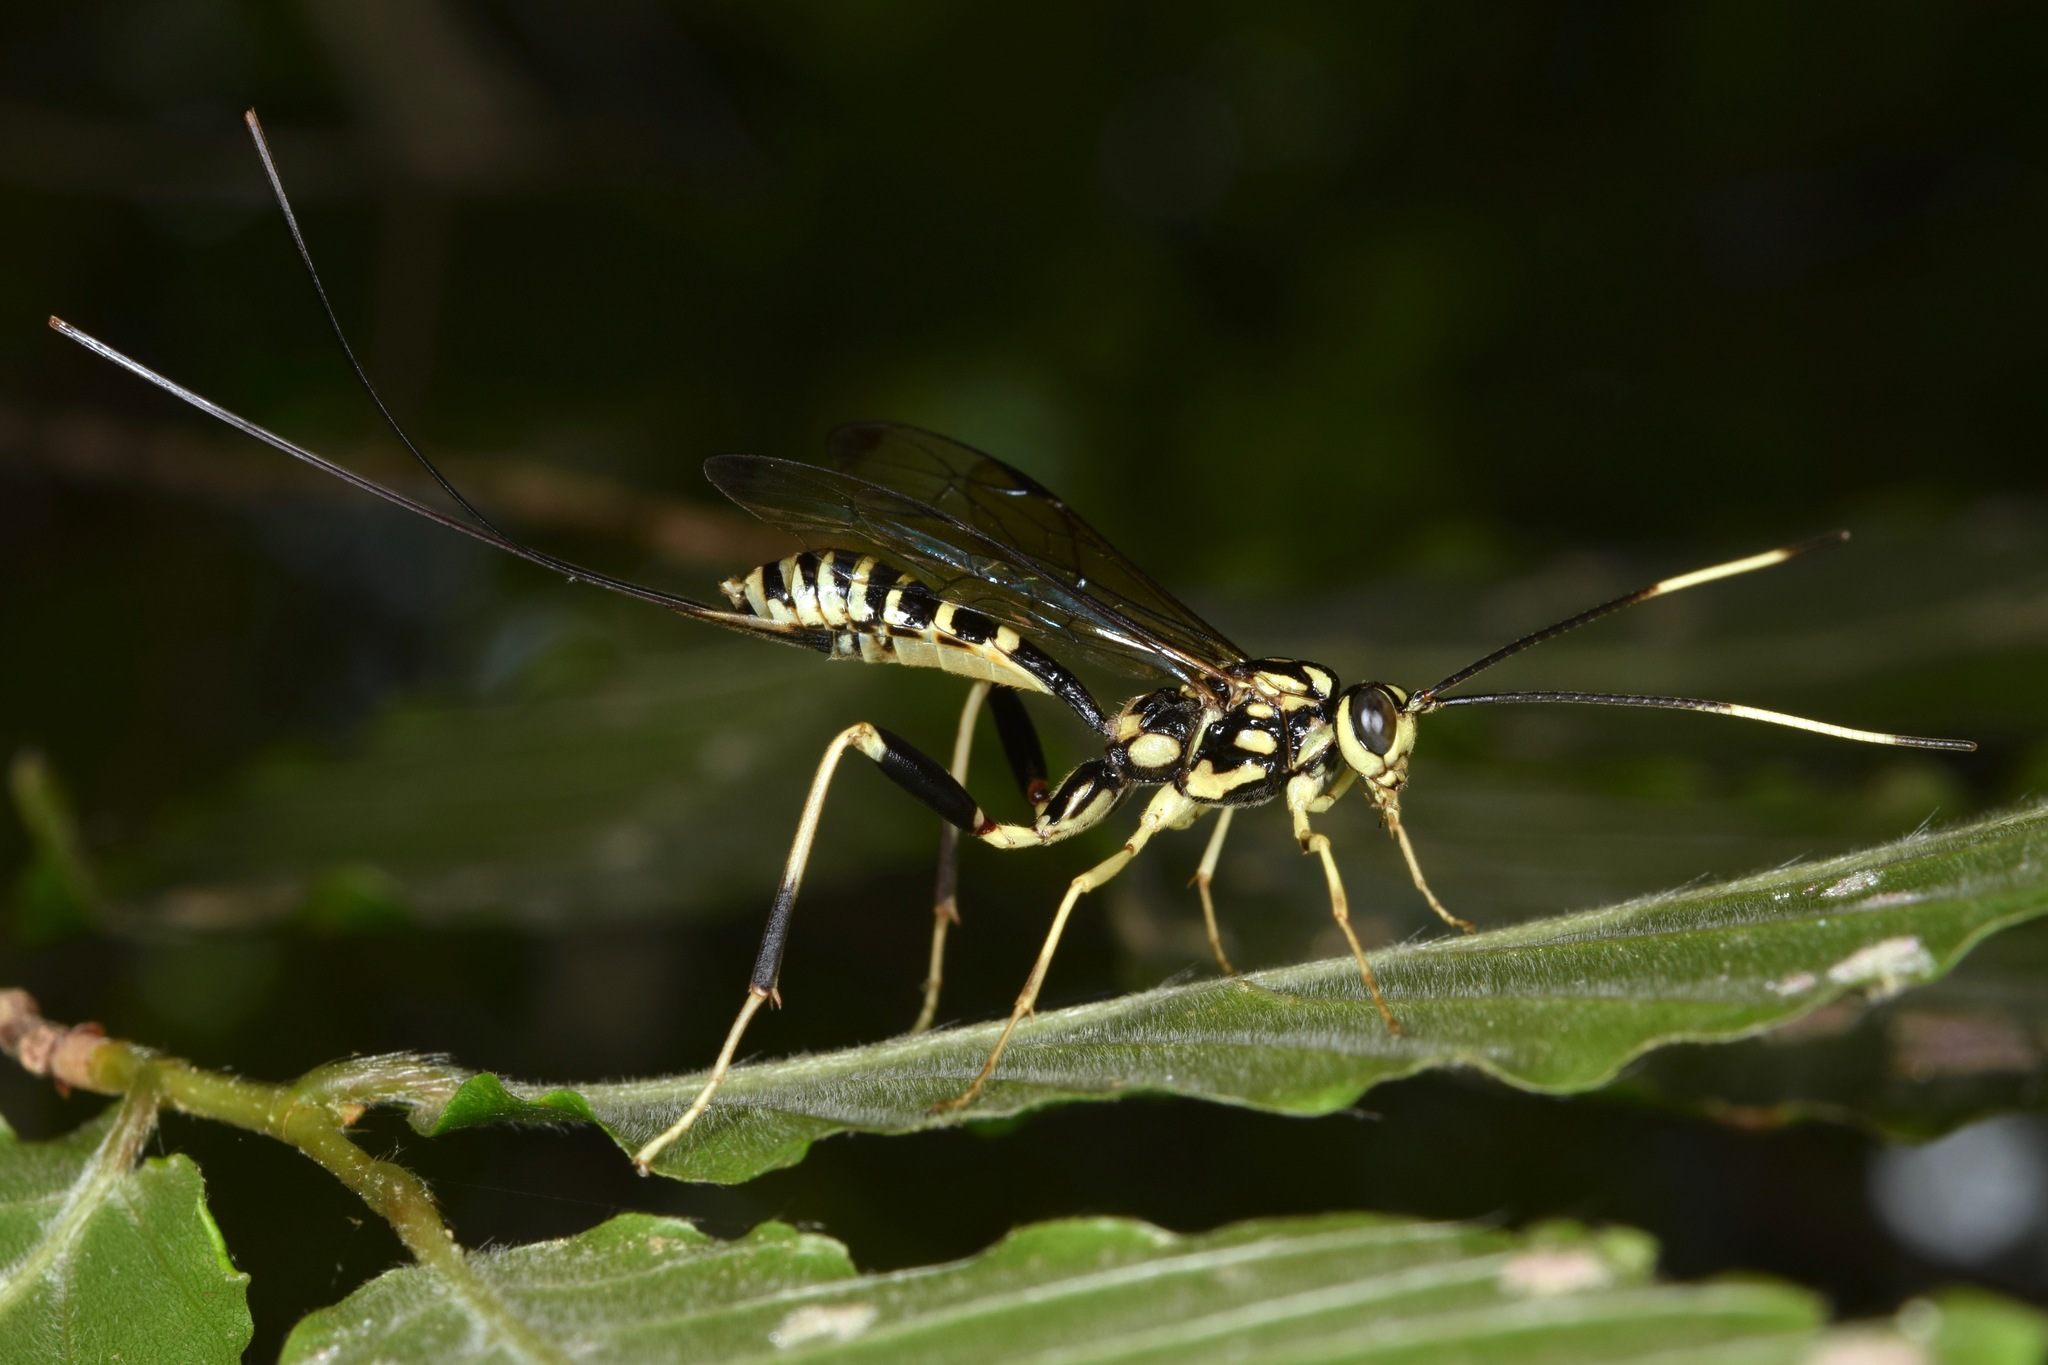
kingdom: Animalia
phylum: Arthropoda
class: Insecta
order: Hymenoptera
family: Ichneumonidae
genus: Arotes
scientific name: Arotes amoenus
